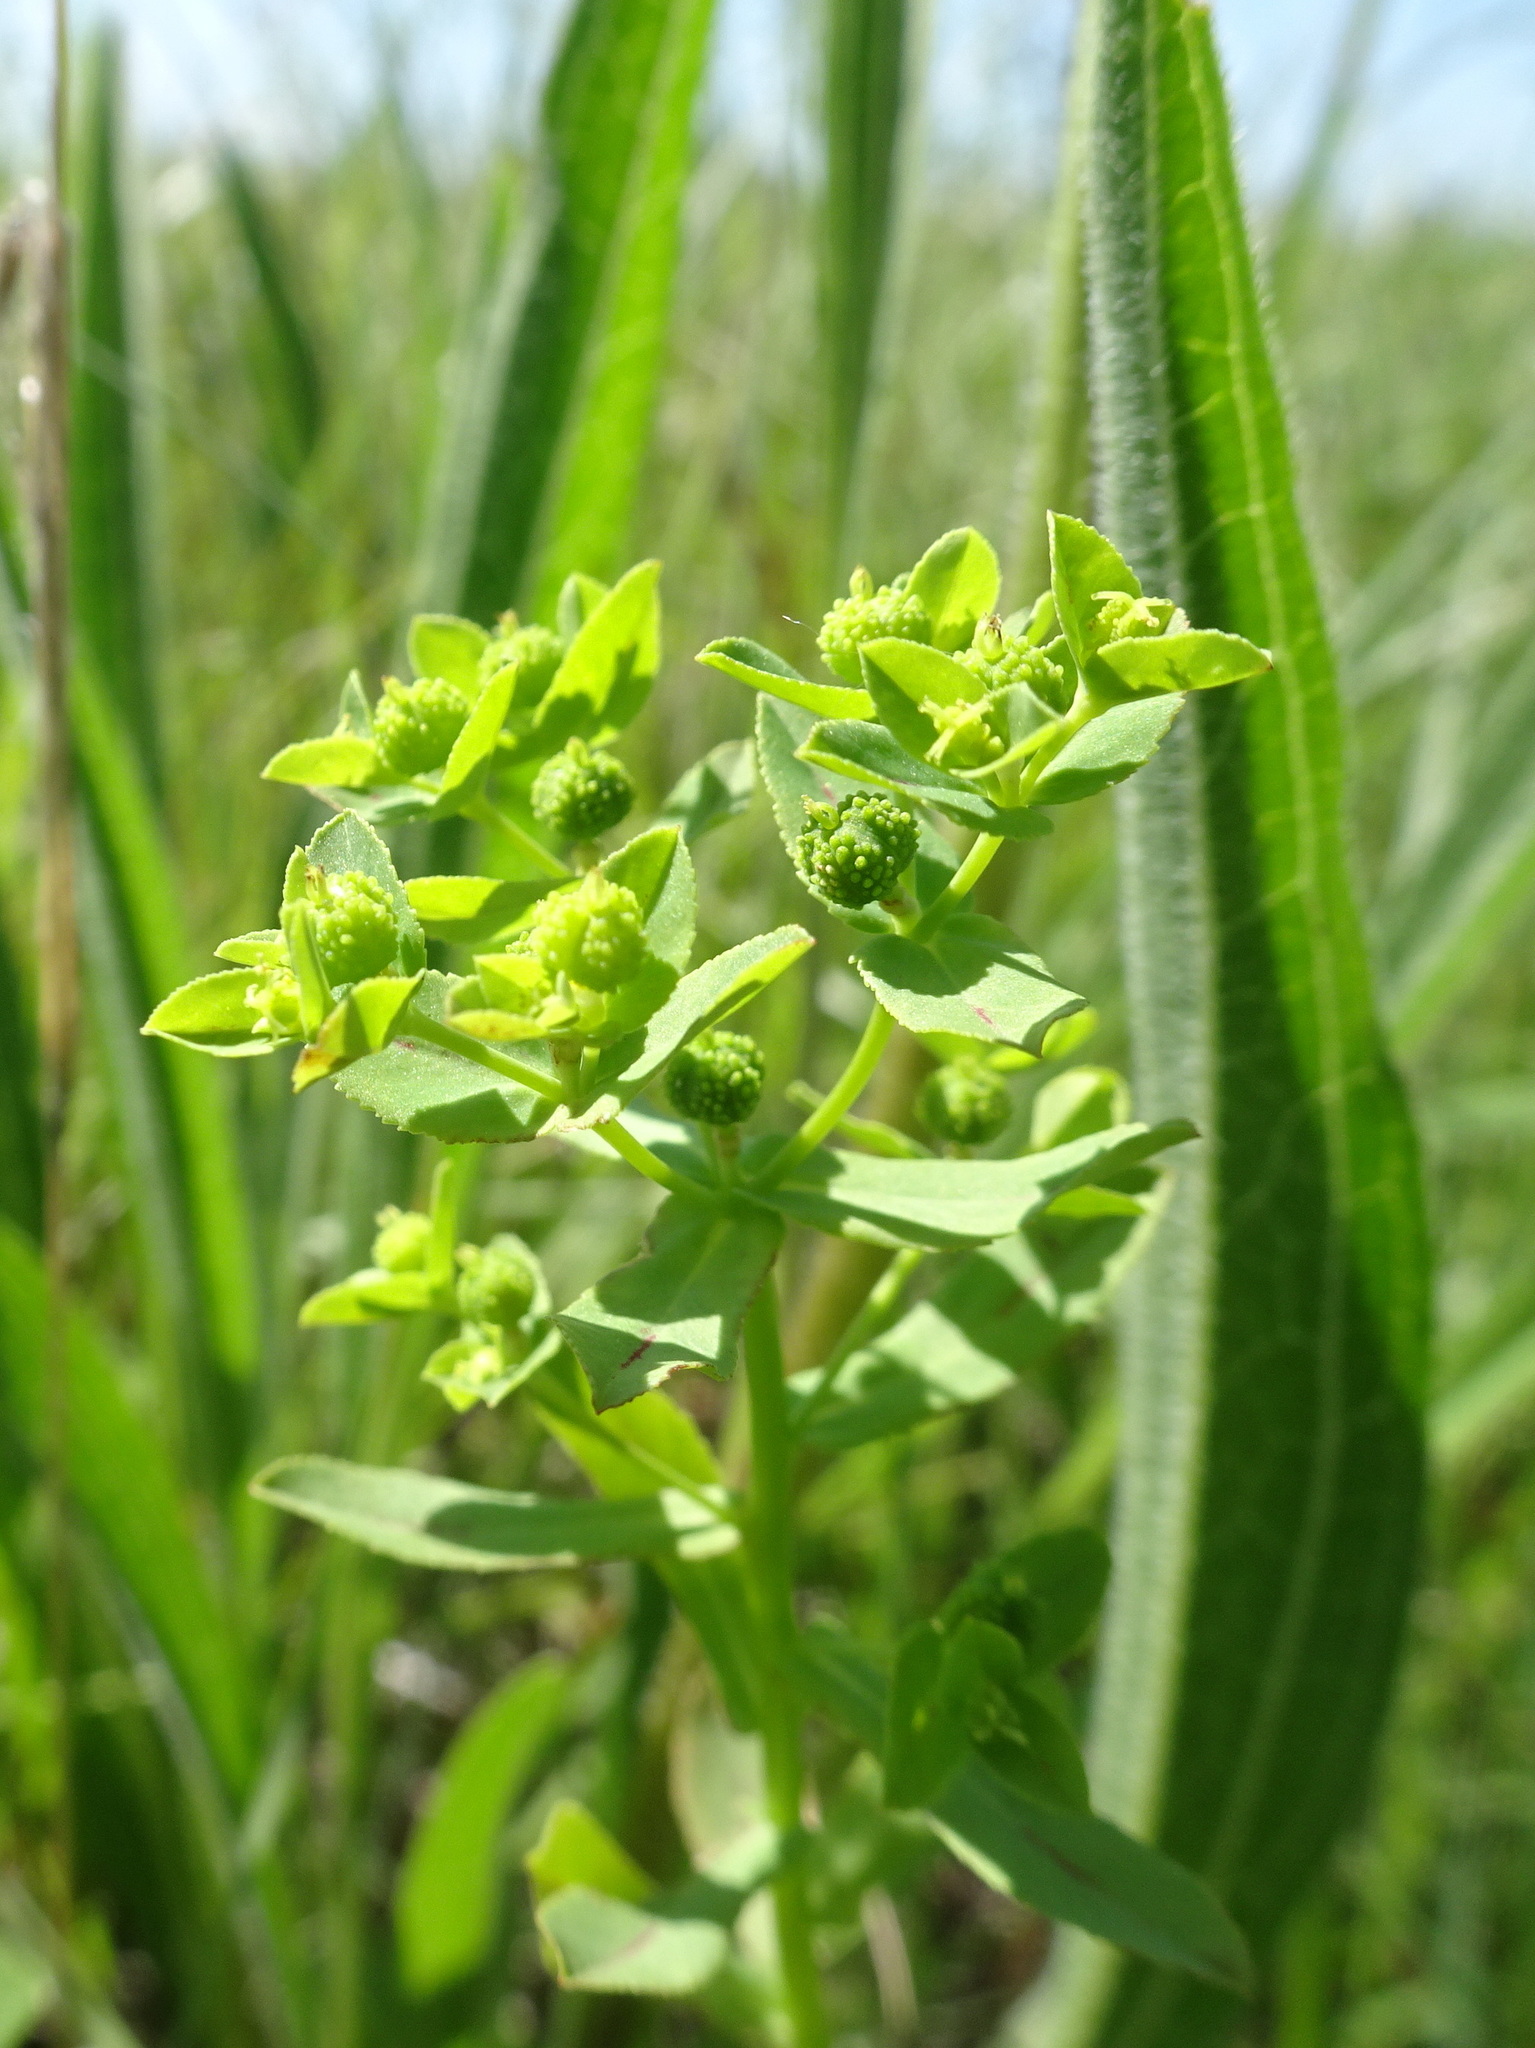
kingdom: Plantae
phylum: Tracheophyta
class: Magnoliopsida
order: Malpighiales
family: Euphorbiaceae
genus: Euphorbia
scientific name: Euphorbia spathulata
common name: Blunt spurge
